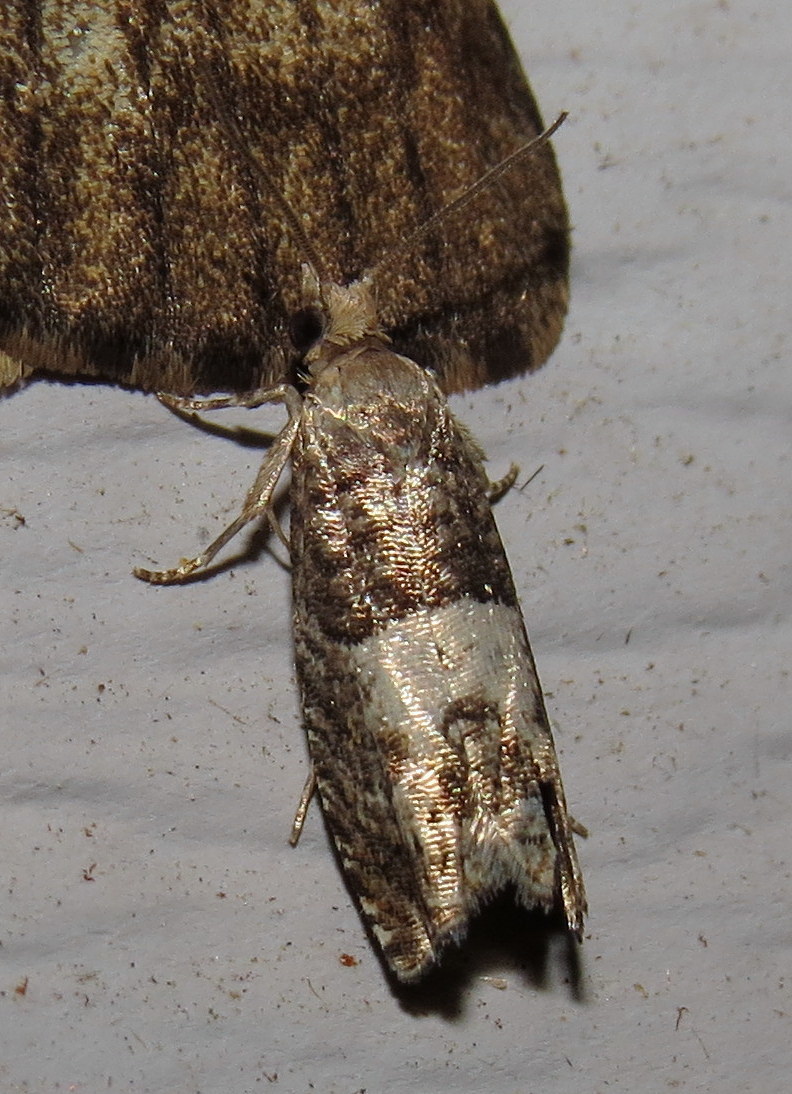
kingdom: Animalia
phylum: Arthropoda
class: Insecta
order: Lepidoptera
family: Tortricidae
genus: Epinotia
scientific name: Epinotia transmissana
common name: Walker's epinotia moth
